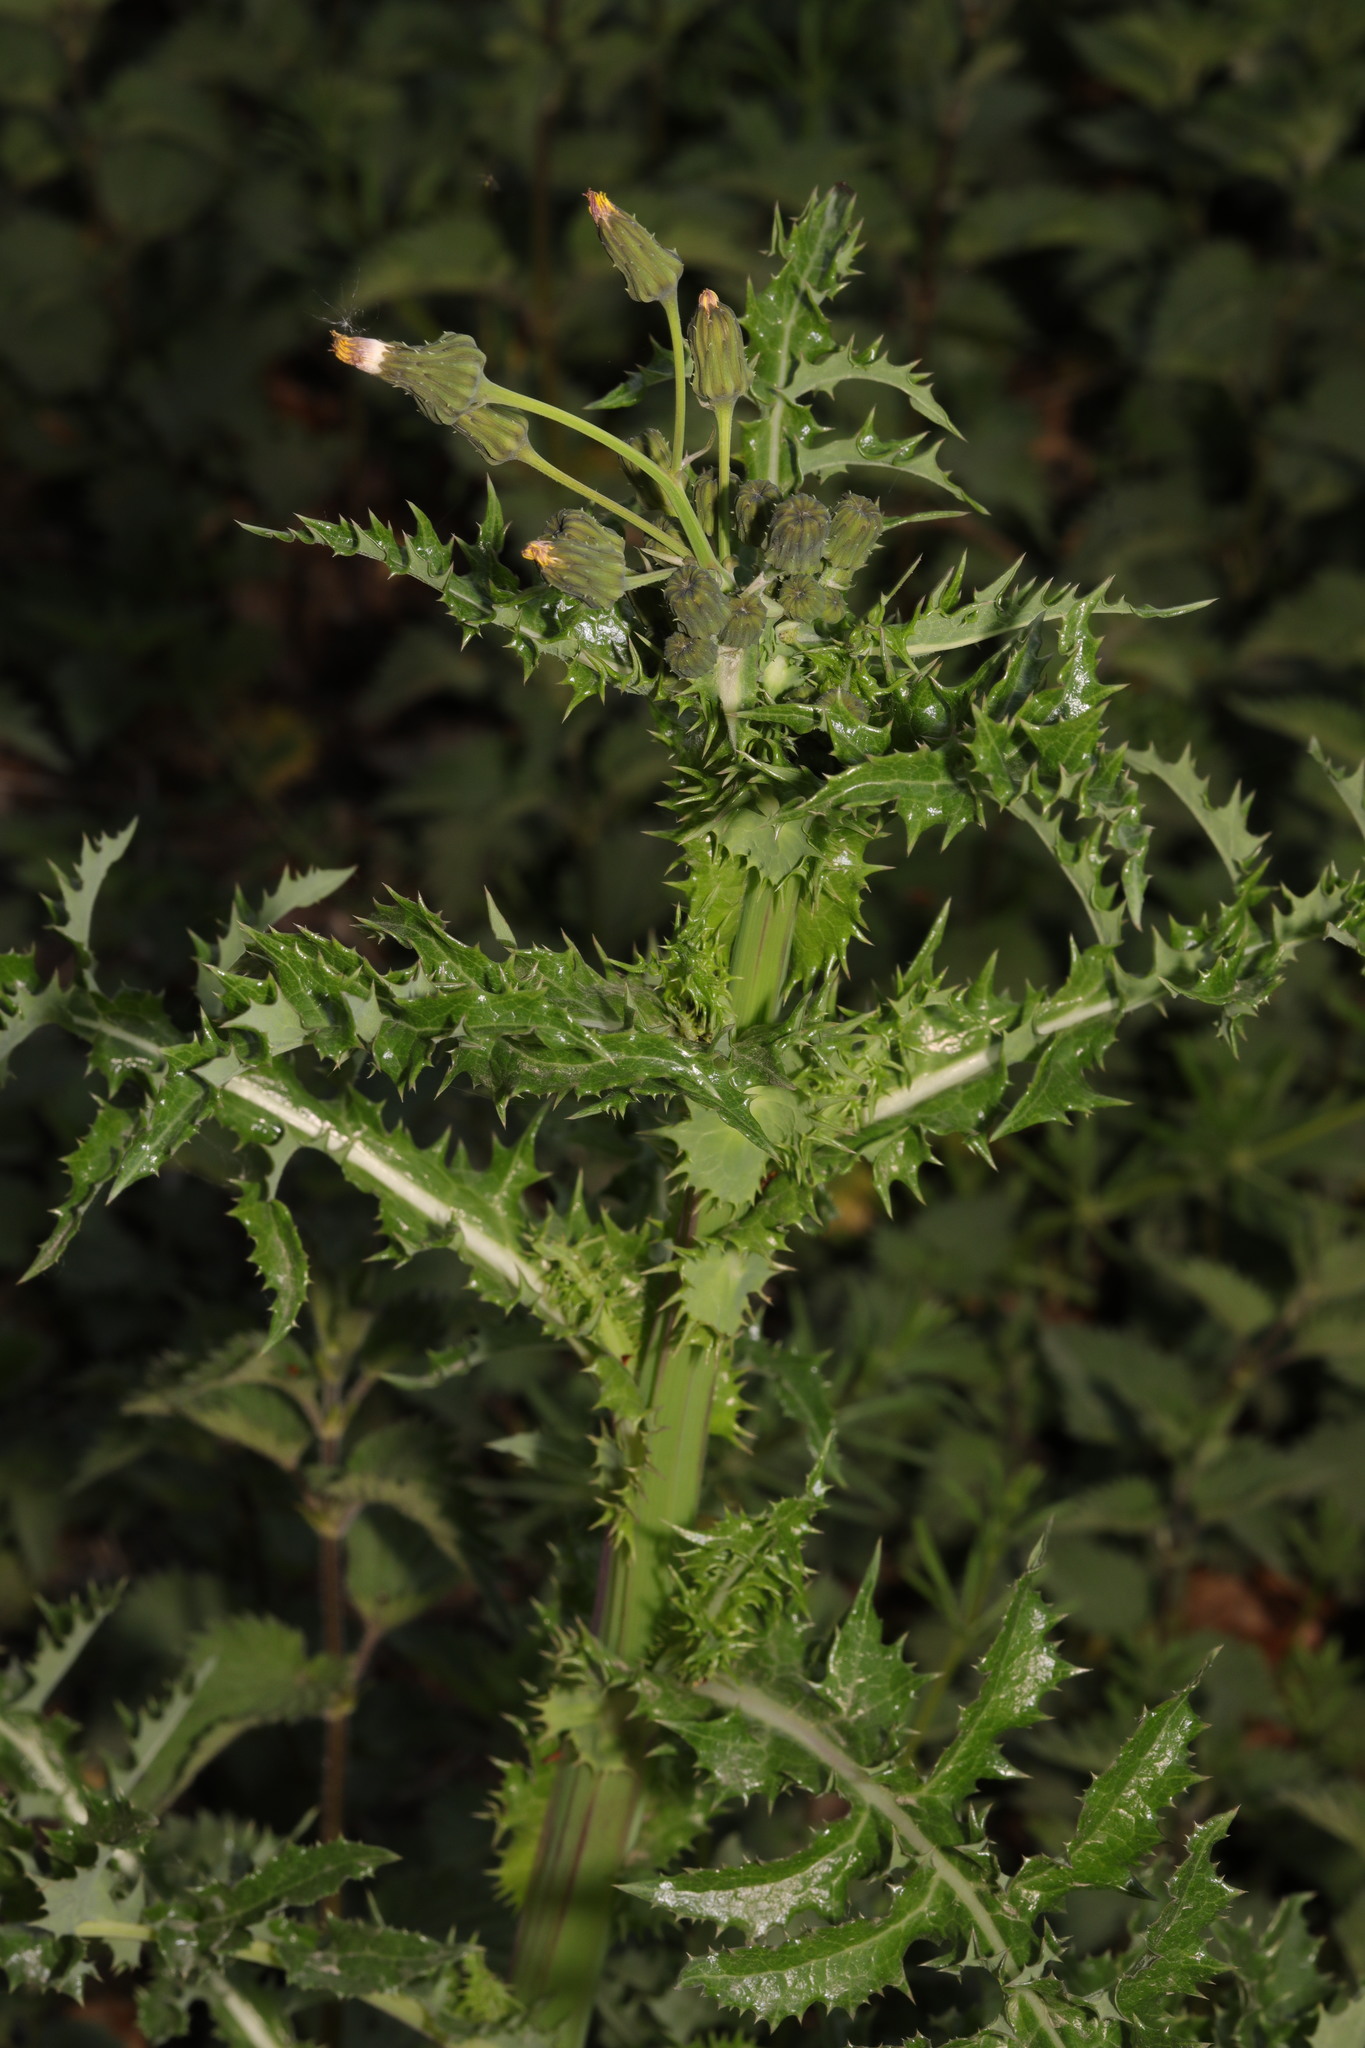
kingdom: Plantae
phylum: Tracheophyta
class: Magnoliopsida
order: Asterales
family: Asteraceae
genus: Sonchus
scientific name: Sonchus asper
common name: Prickly sow-thistle
